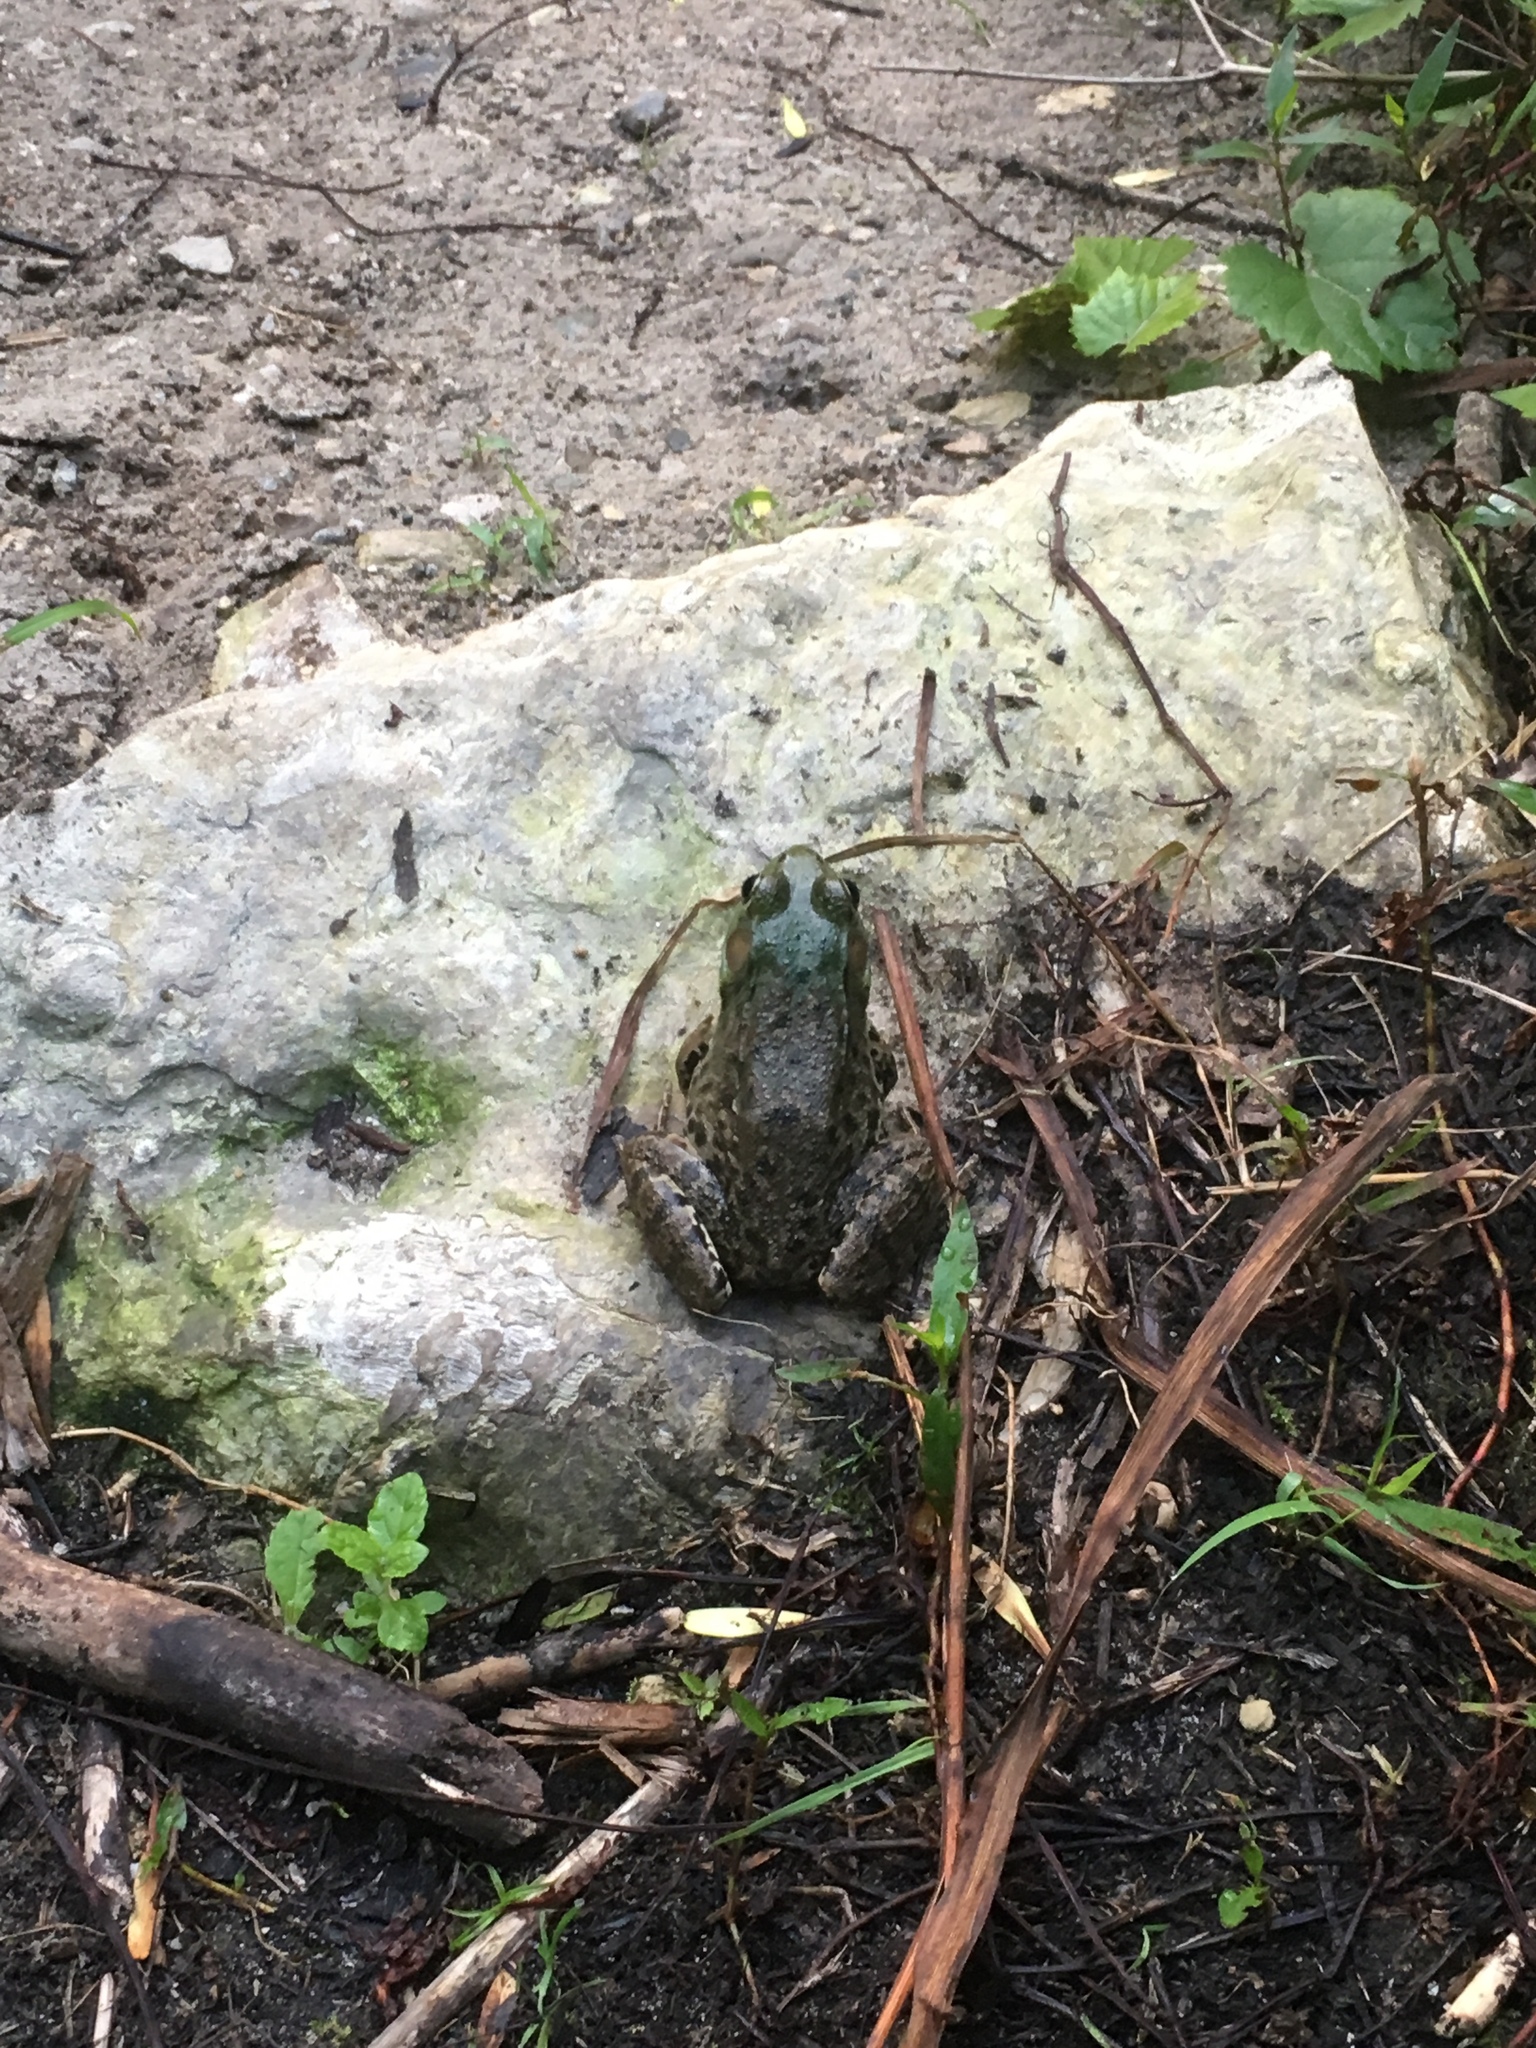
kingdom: Animalia
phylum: Chordata
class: Amphibia
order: Anura
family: Ranidae
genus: Lithobates
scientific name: Lithobates clamitans
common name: Green frog
